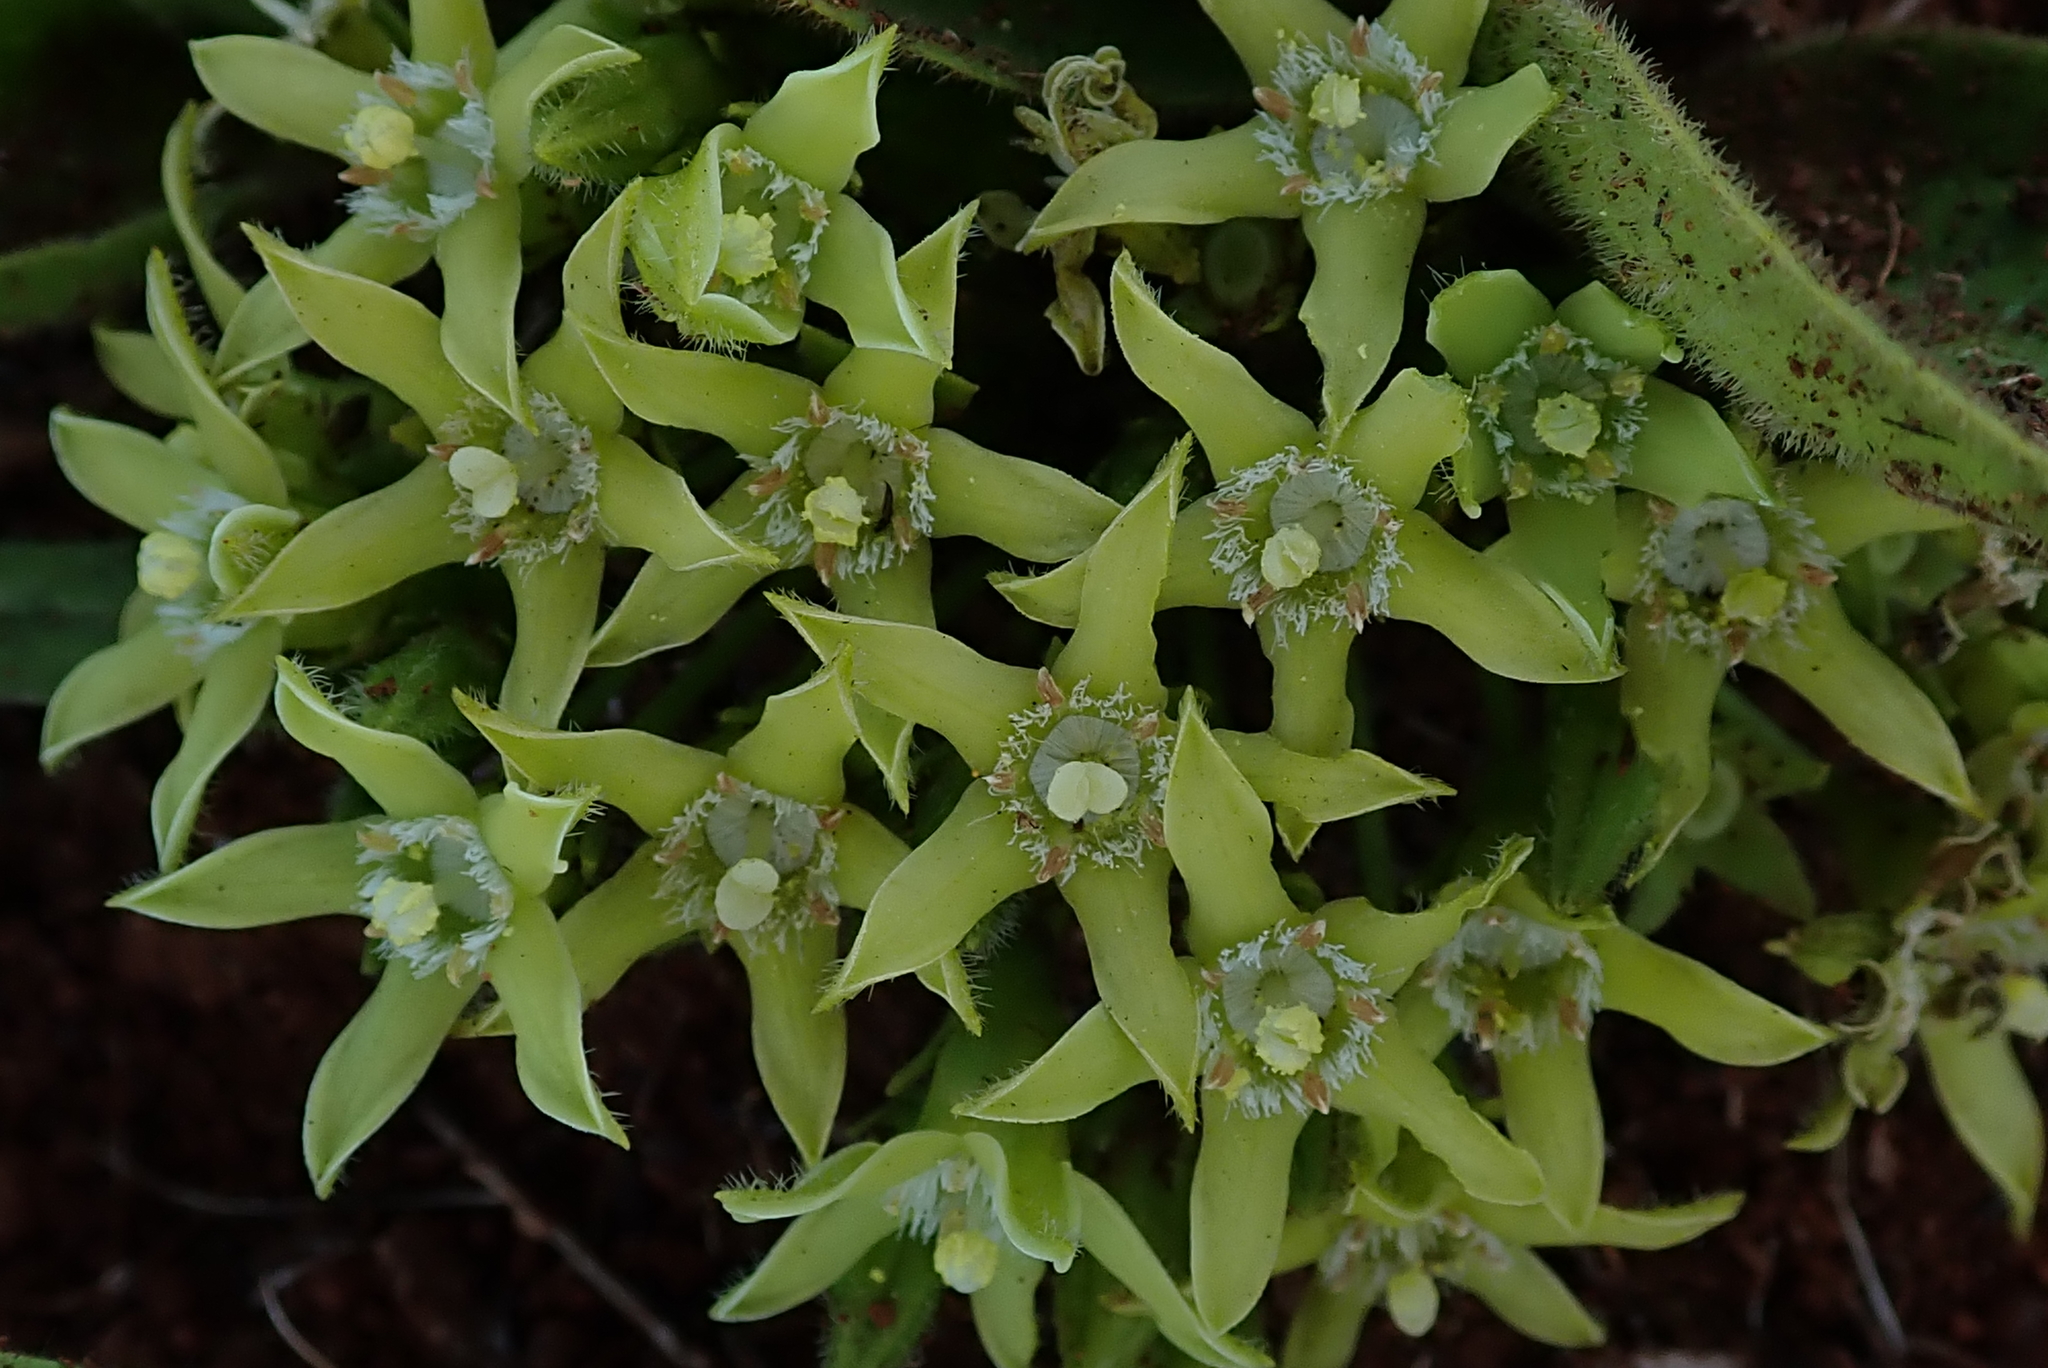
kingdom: Plantae
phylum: Tracheophyta
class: Magnoliopsida
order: Gentianales
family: Rubiaceae
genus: Bridsonia
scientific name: Bridsonia chamaedendrum
